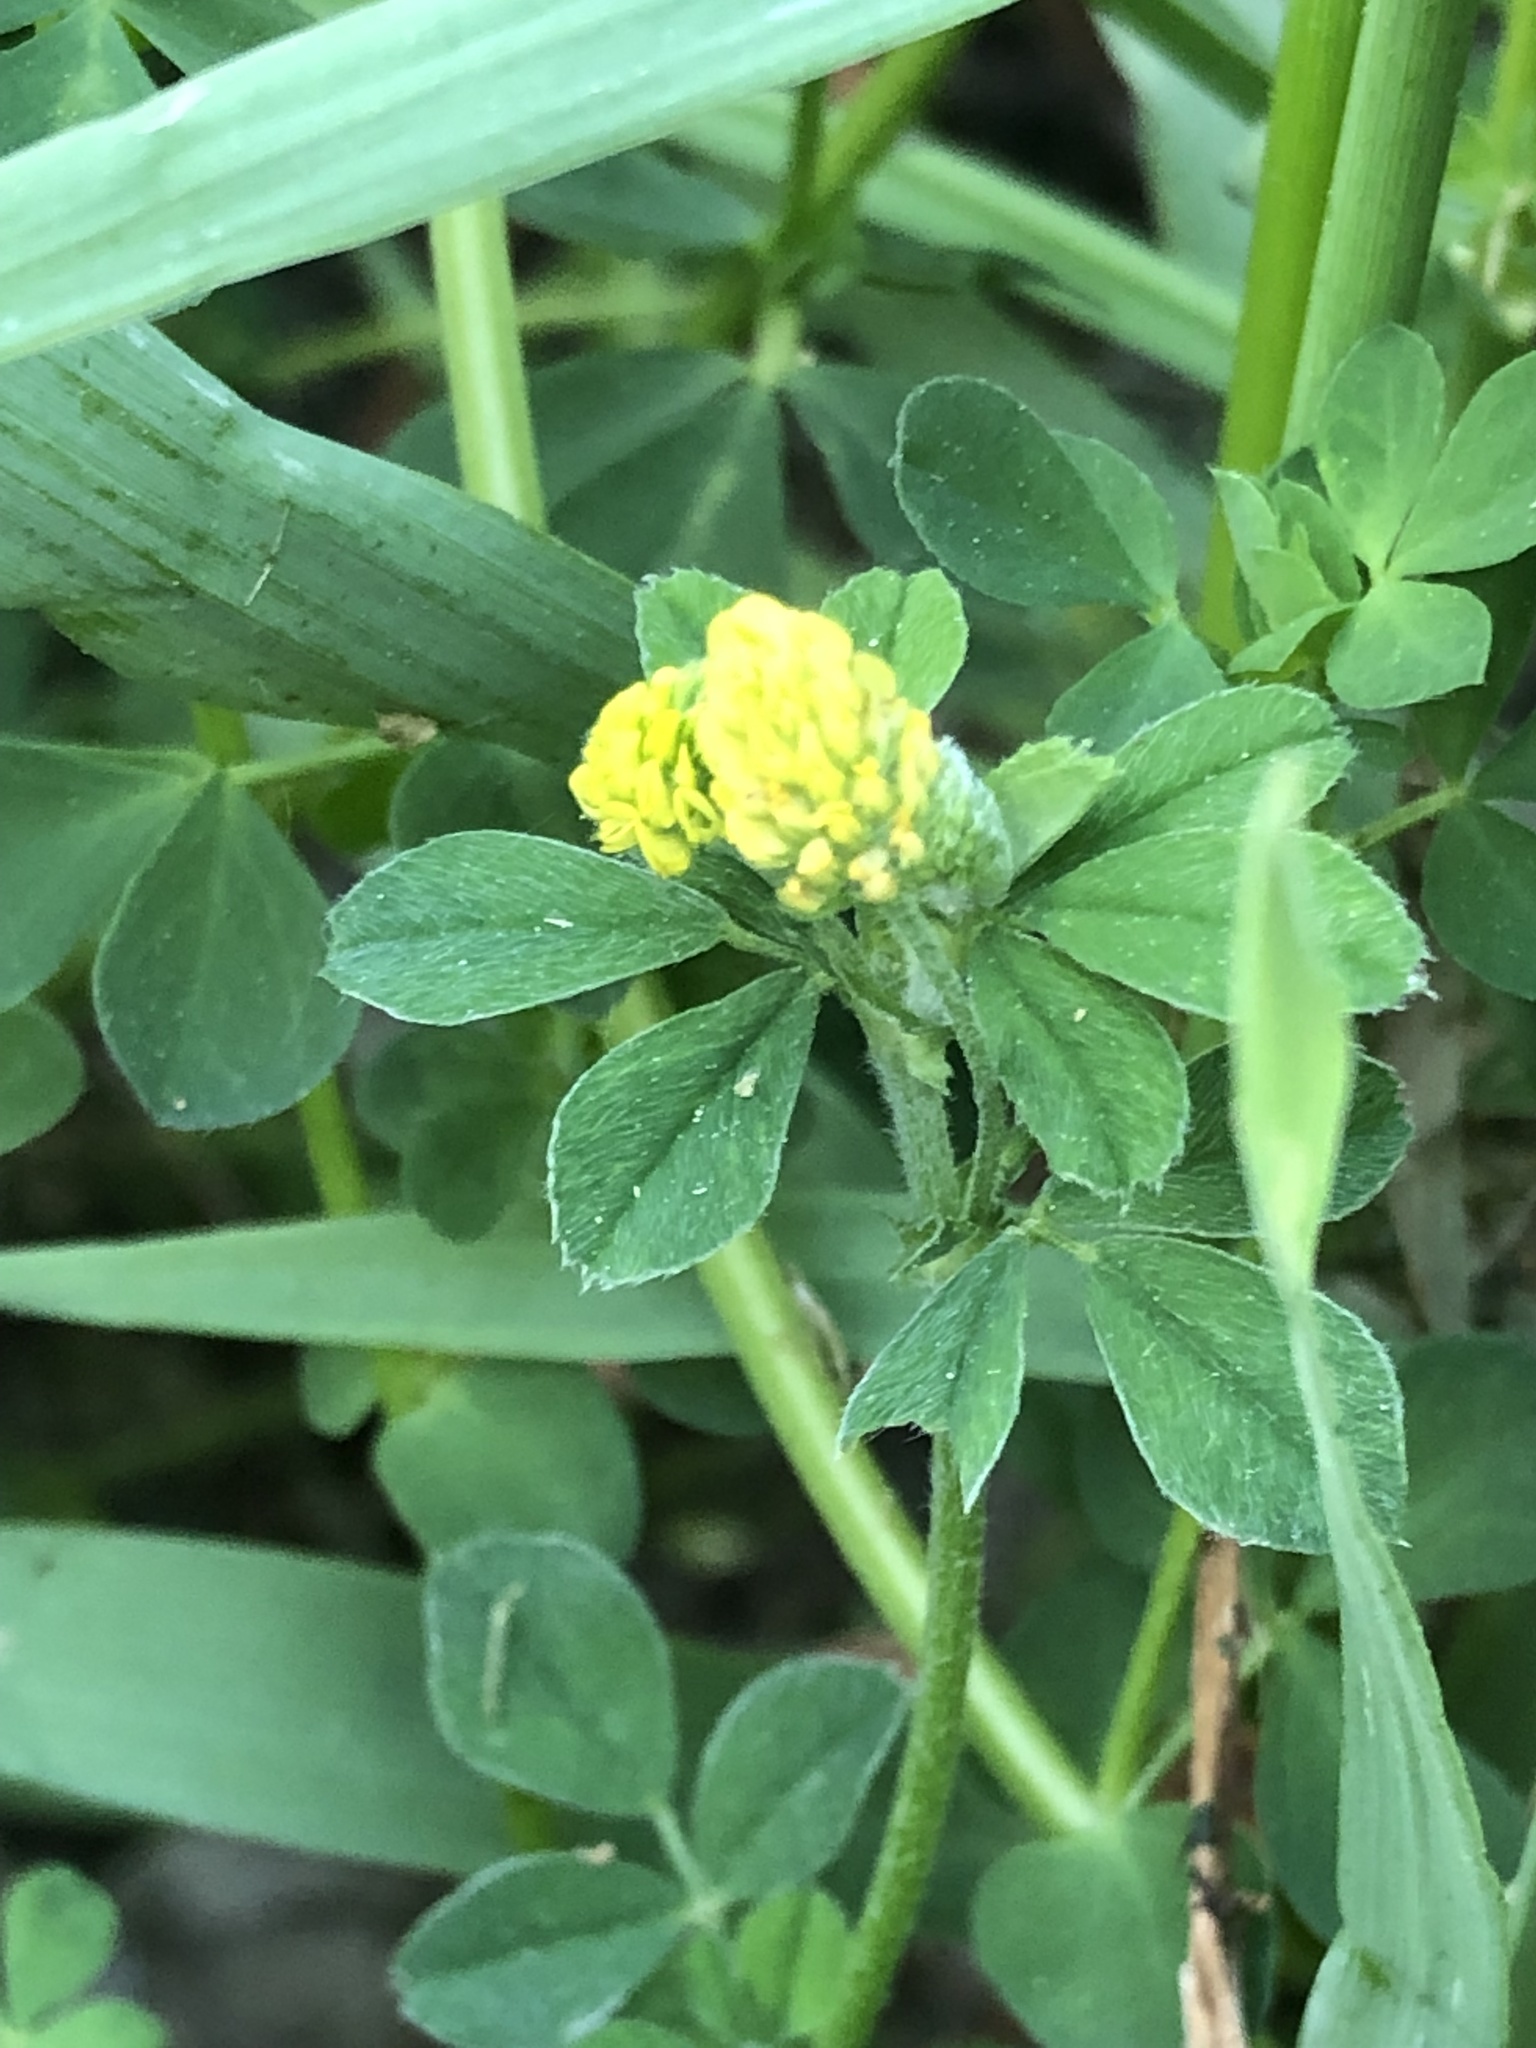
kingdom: Plantae
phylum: Tracheophyta
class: Magnoliopsida
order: Fabales
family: Fabaceae
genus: Medicago
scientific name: Medicago lupulina
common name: Black medick
